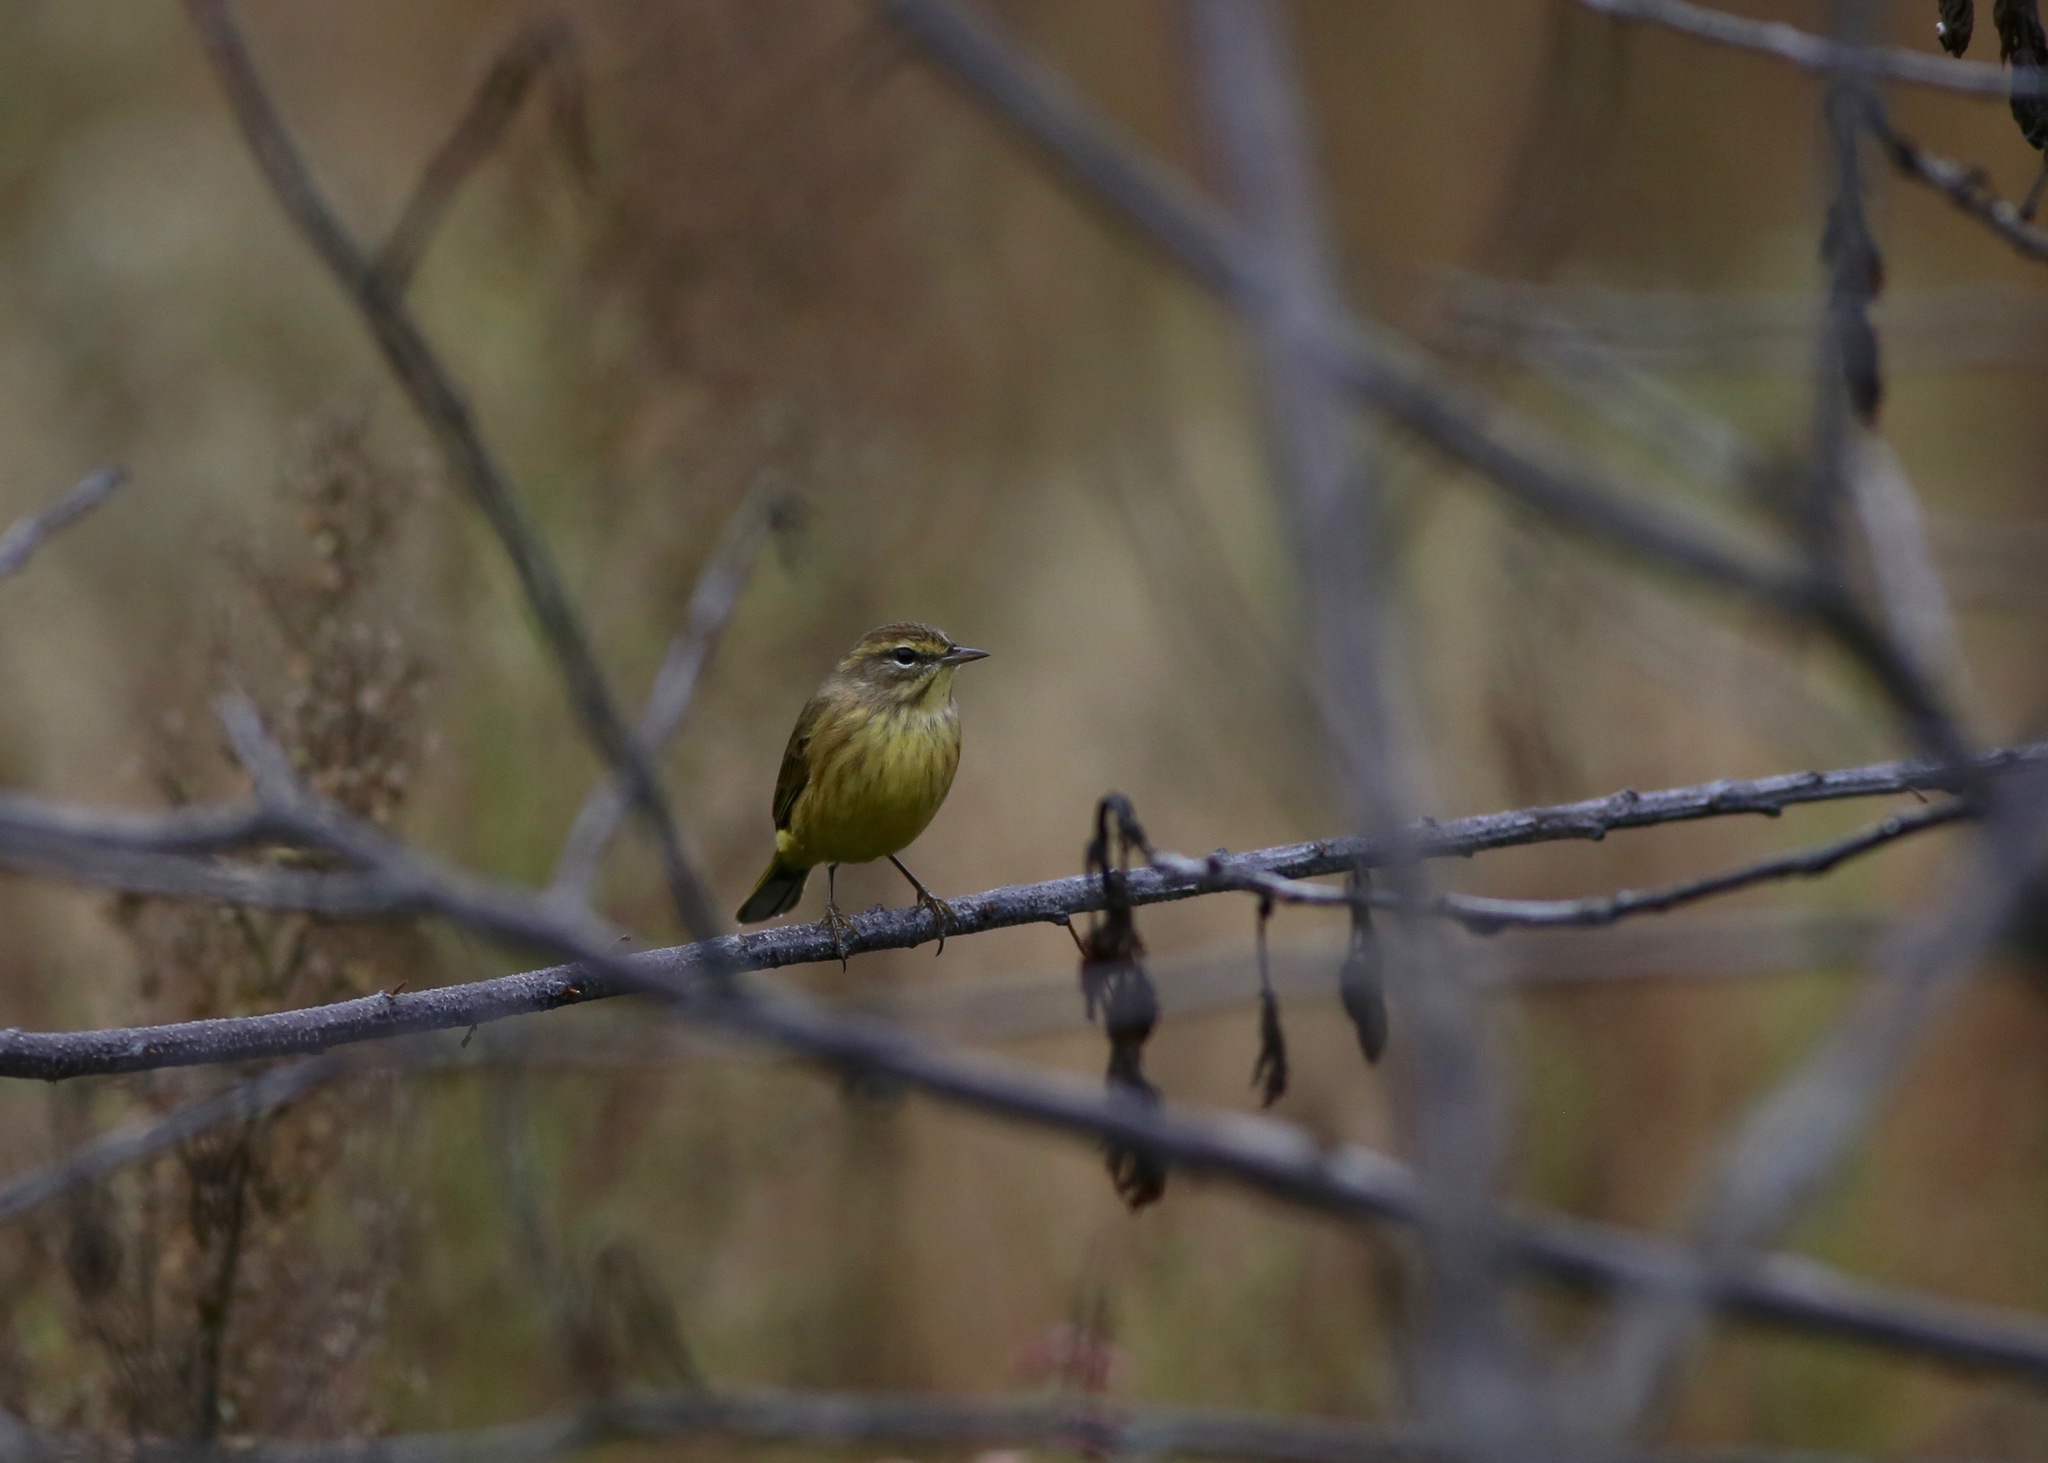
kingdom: Animalia
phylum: Chordata
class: Aves
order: Passeriformes
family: Parulidae
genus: Setophaga
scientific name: Setophaga palmarum
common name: Palm warbler
